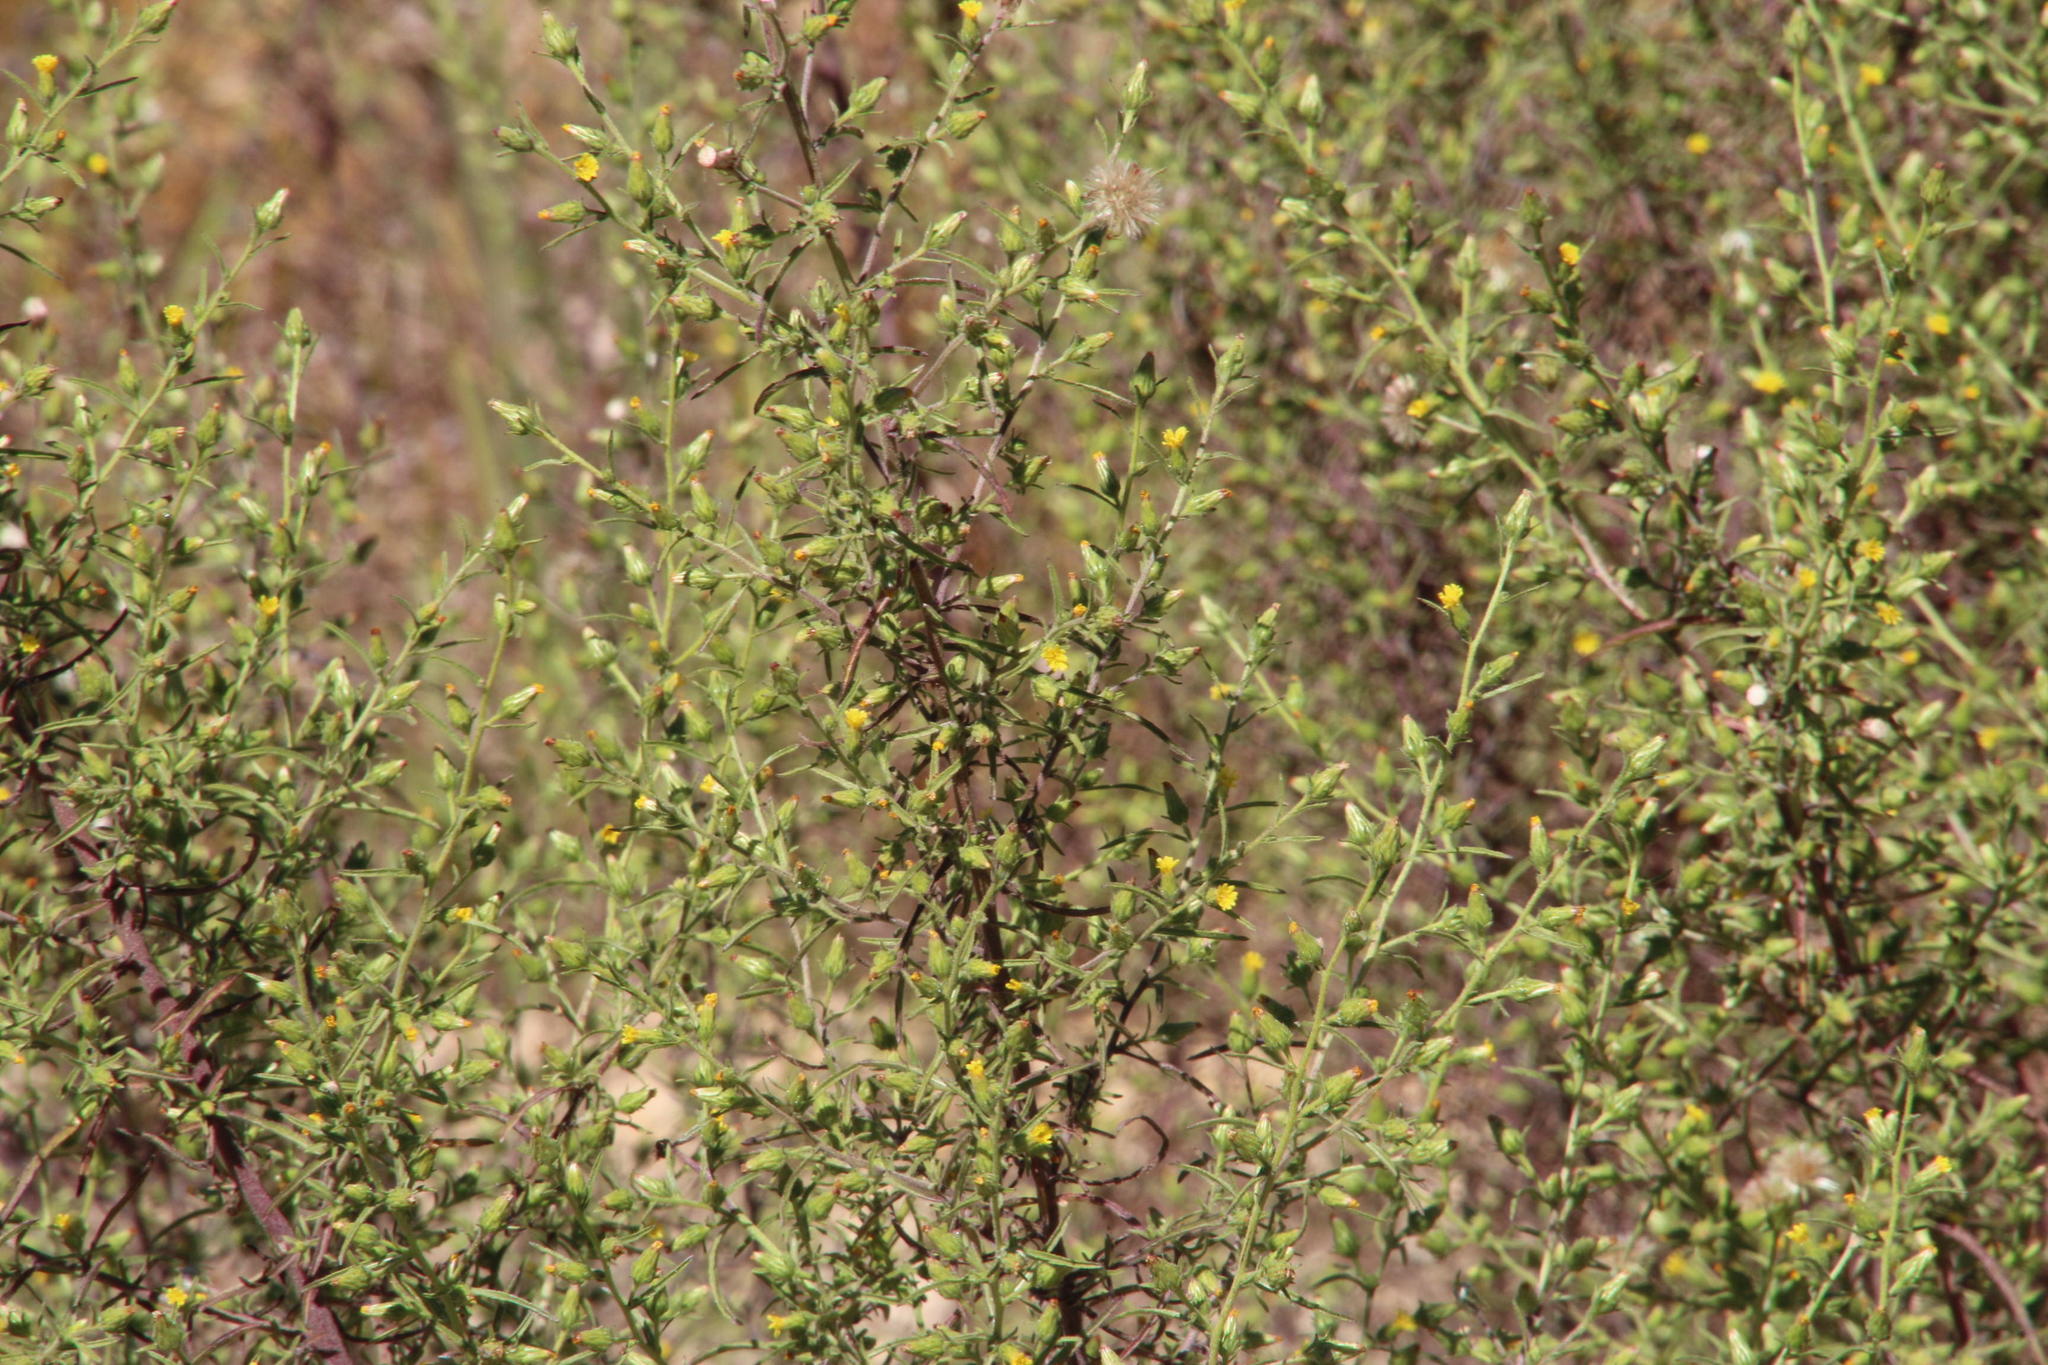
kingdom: Plantae
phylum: Tracheophyta
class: Magnoliopsida
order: Asterales
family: Asteraceae
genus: Dittrichia
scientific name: Dittrichia graveolens
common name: Stinking fleabane
